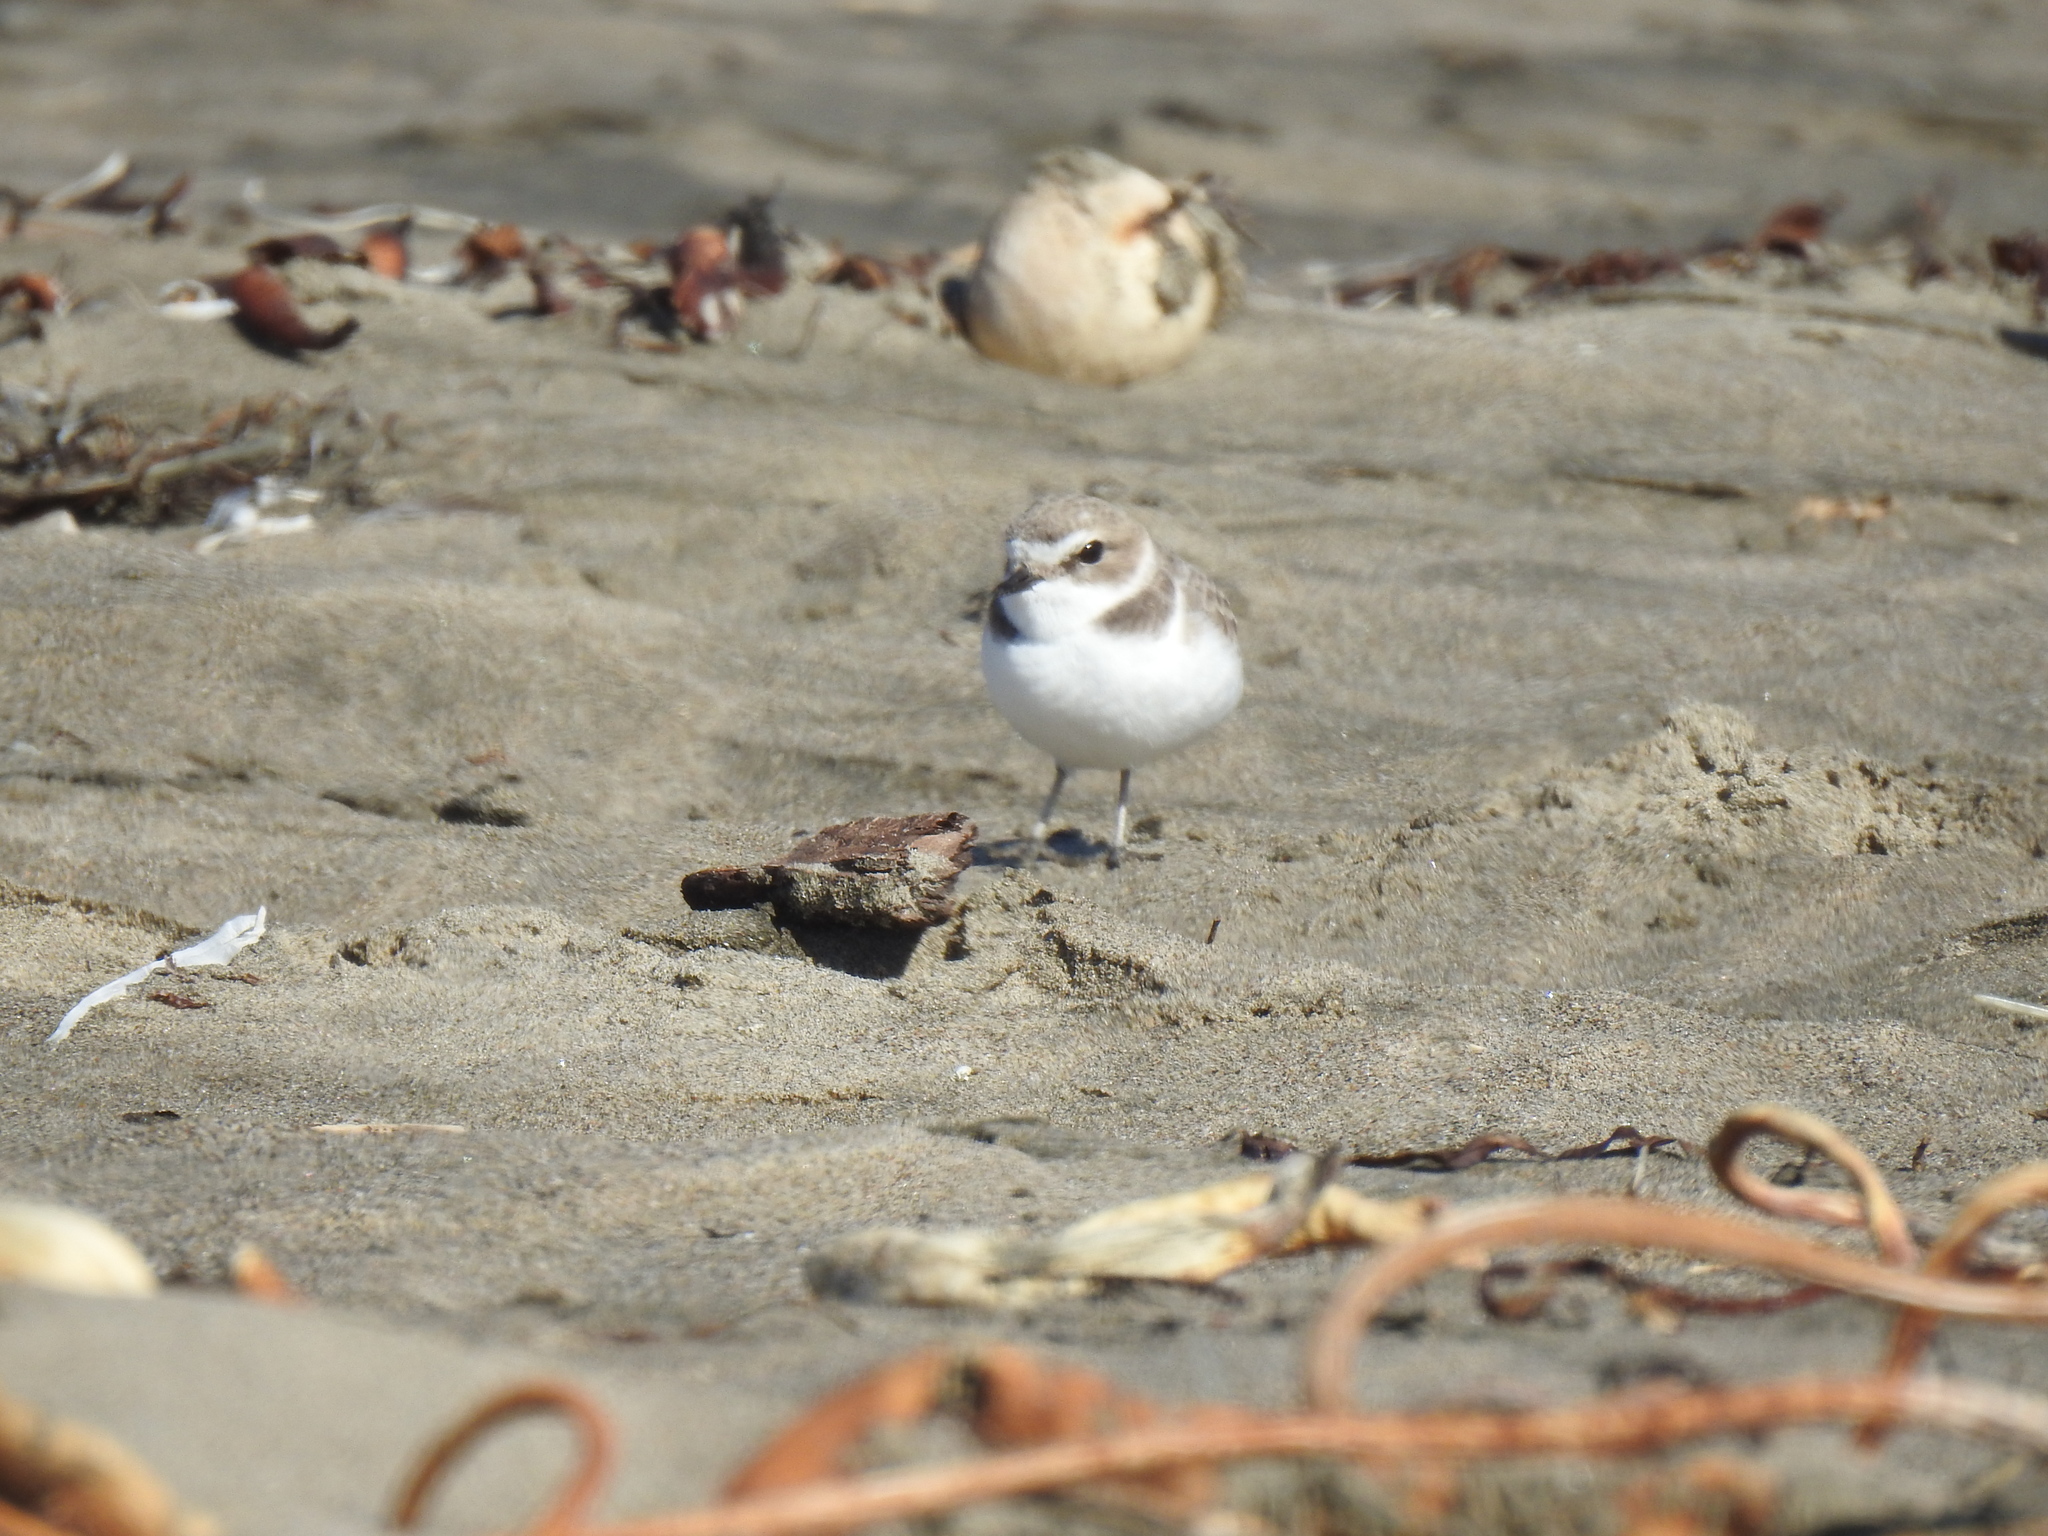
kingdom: Animalia
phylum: Chordata
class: Aves
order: Charadriiformes
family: Charadriidae
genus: Anarhynchus
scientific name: Anarhynchus
